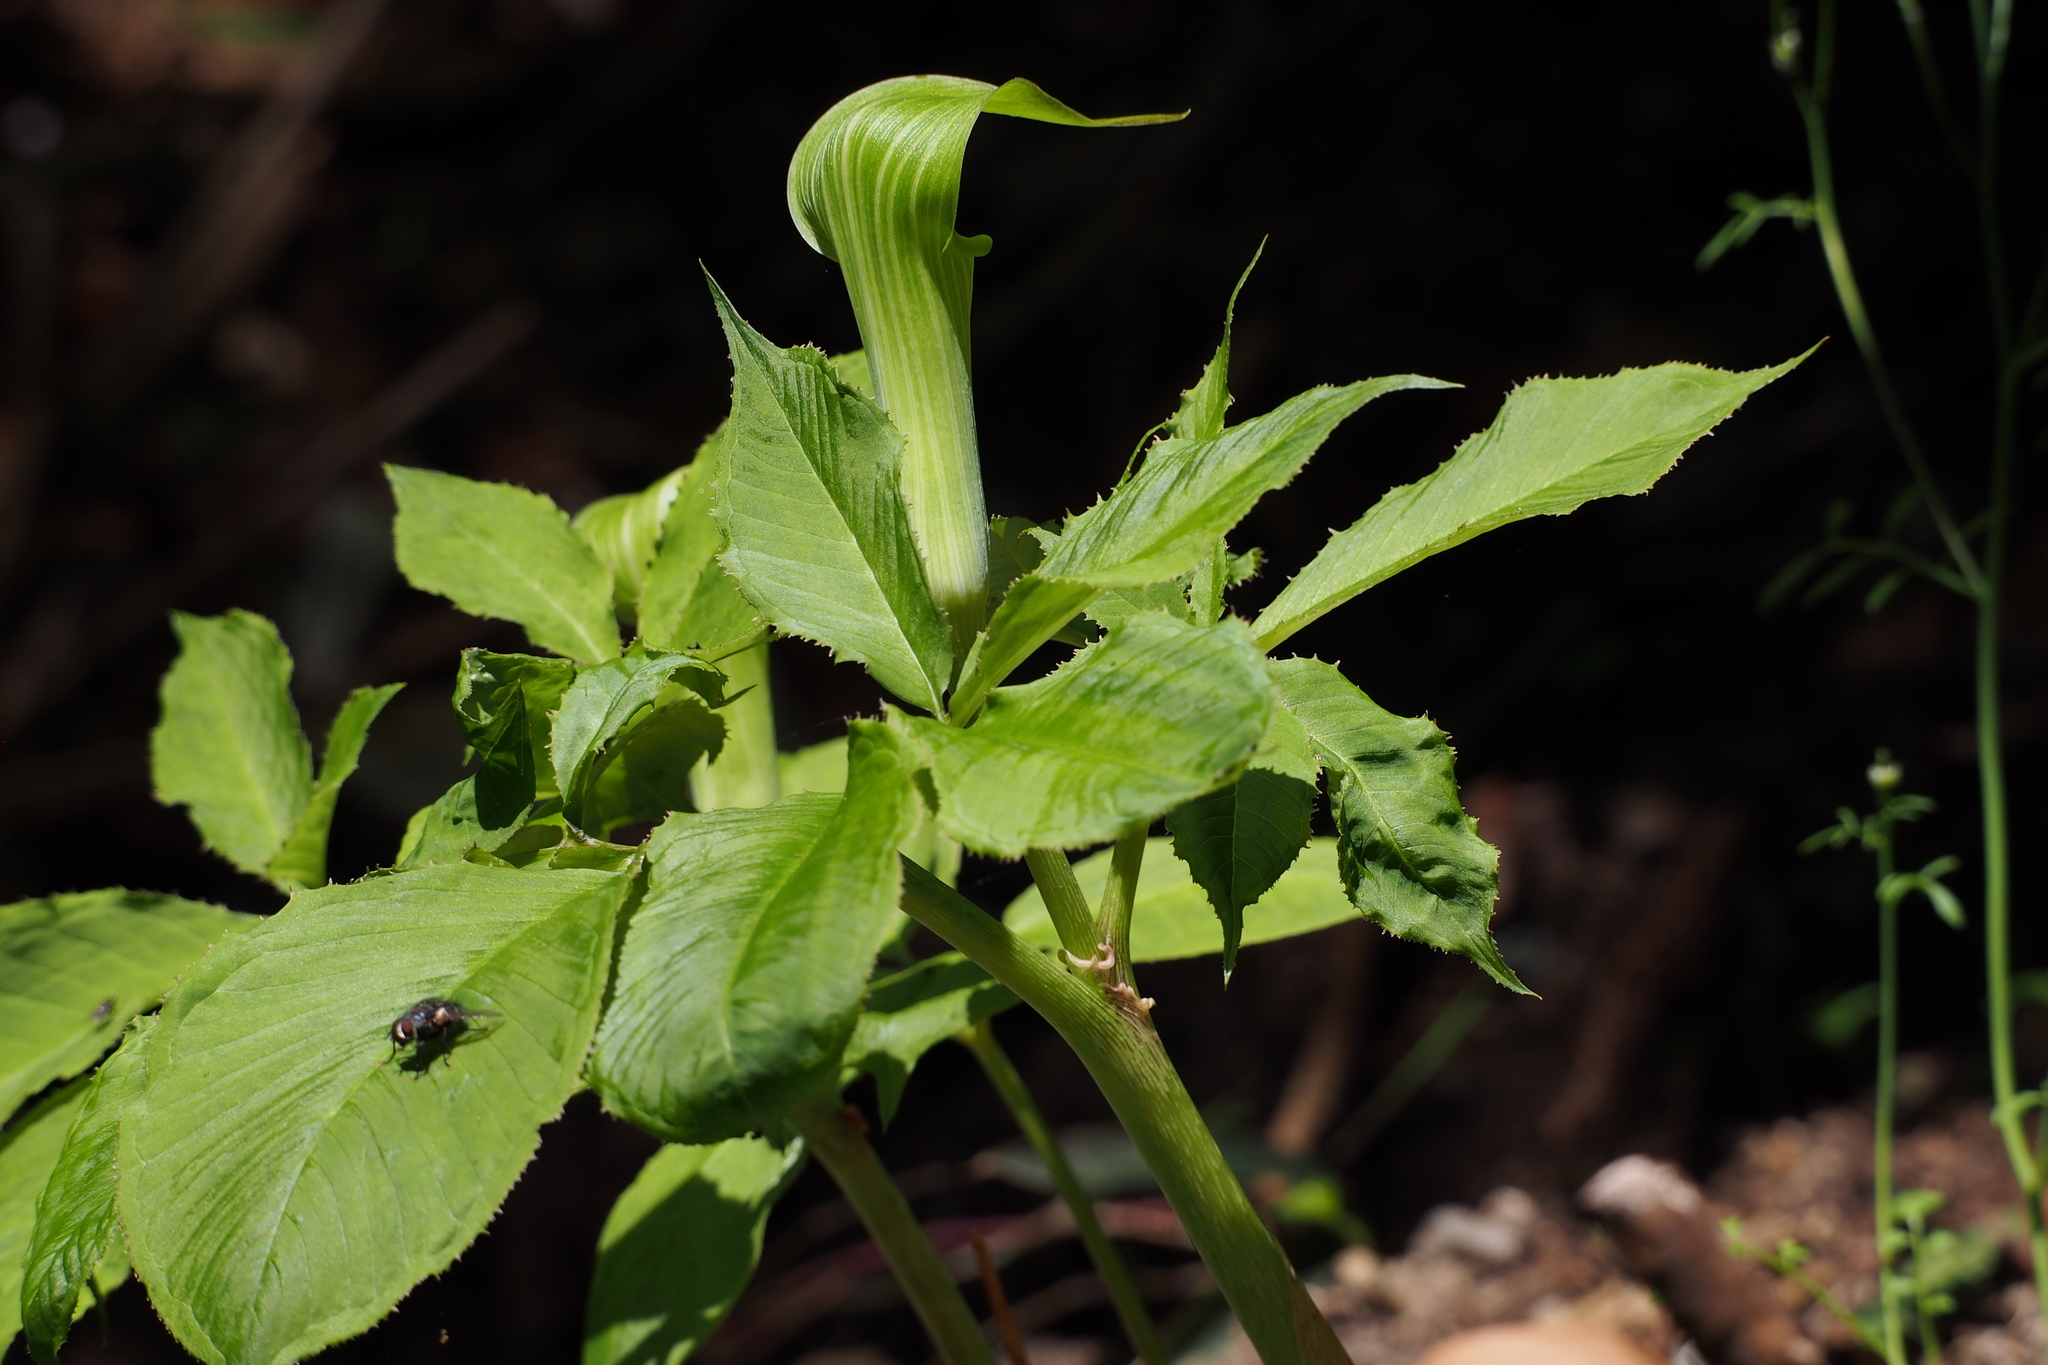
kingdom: Plantae
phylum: Tracheophyta
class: Liliopsida
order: Alismatales
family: Araceae
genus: Arisaema
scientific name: Arisaema serratum
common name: Japanese arisaema
